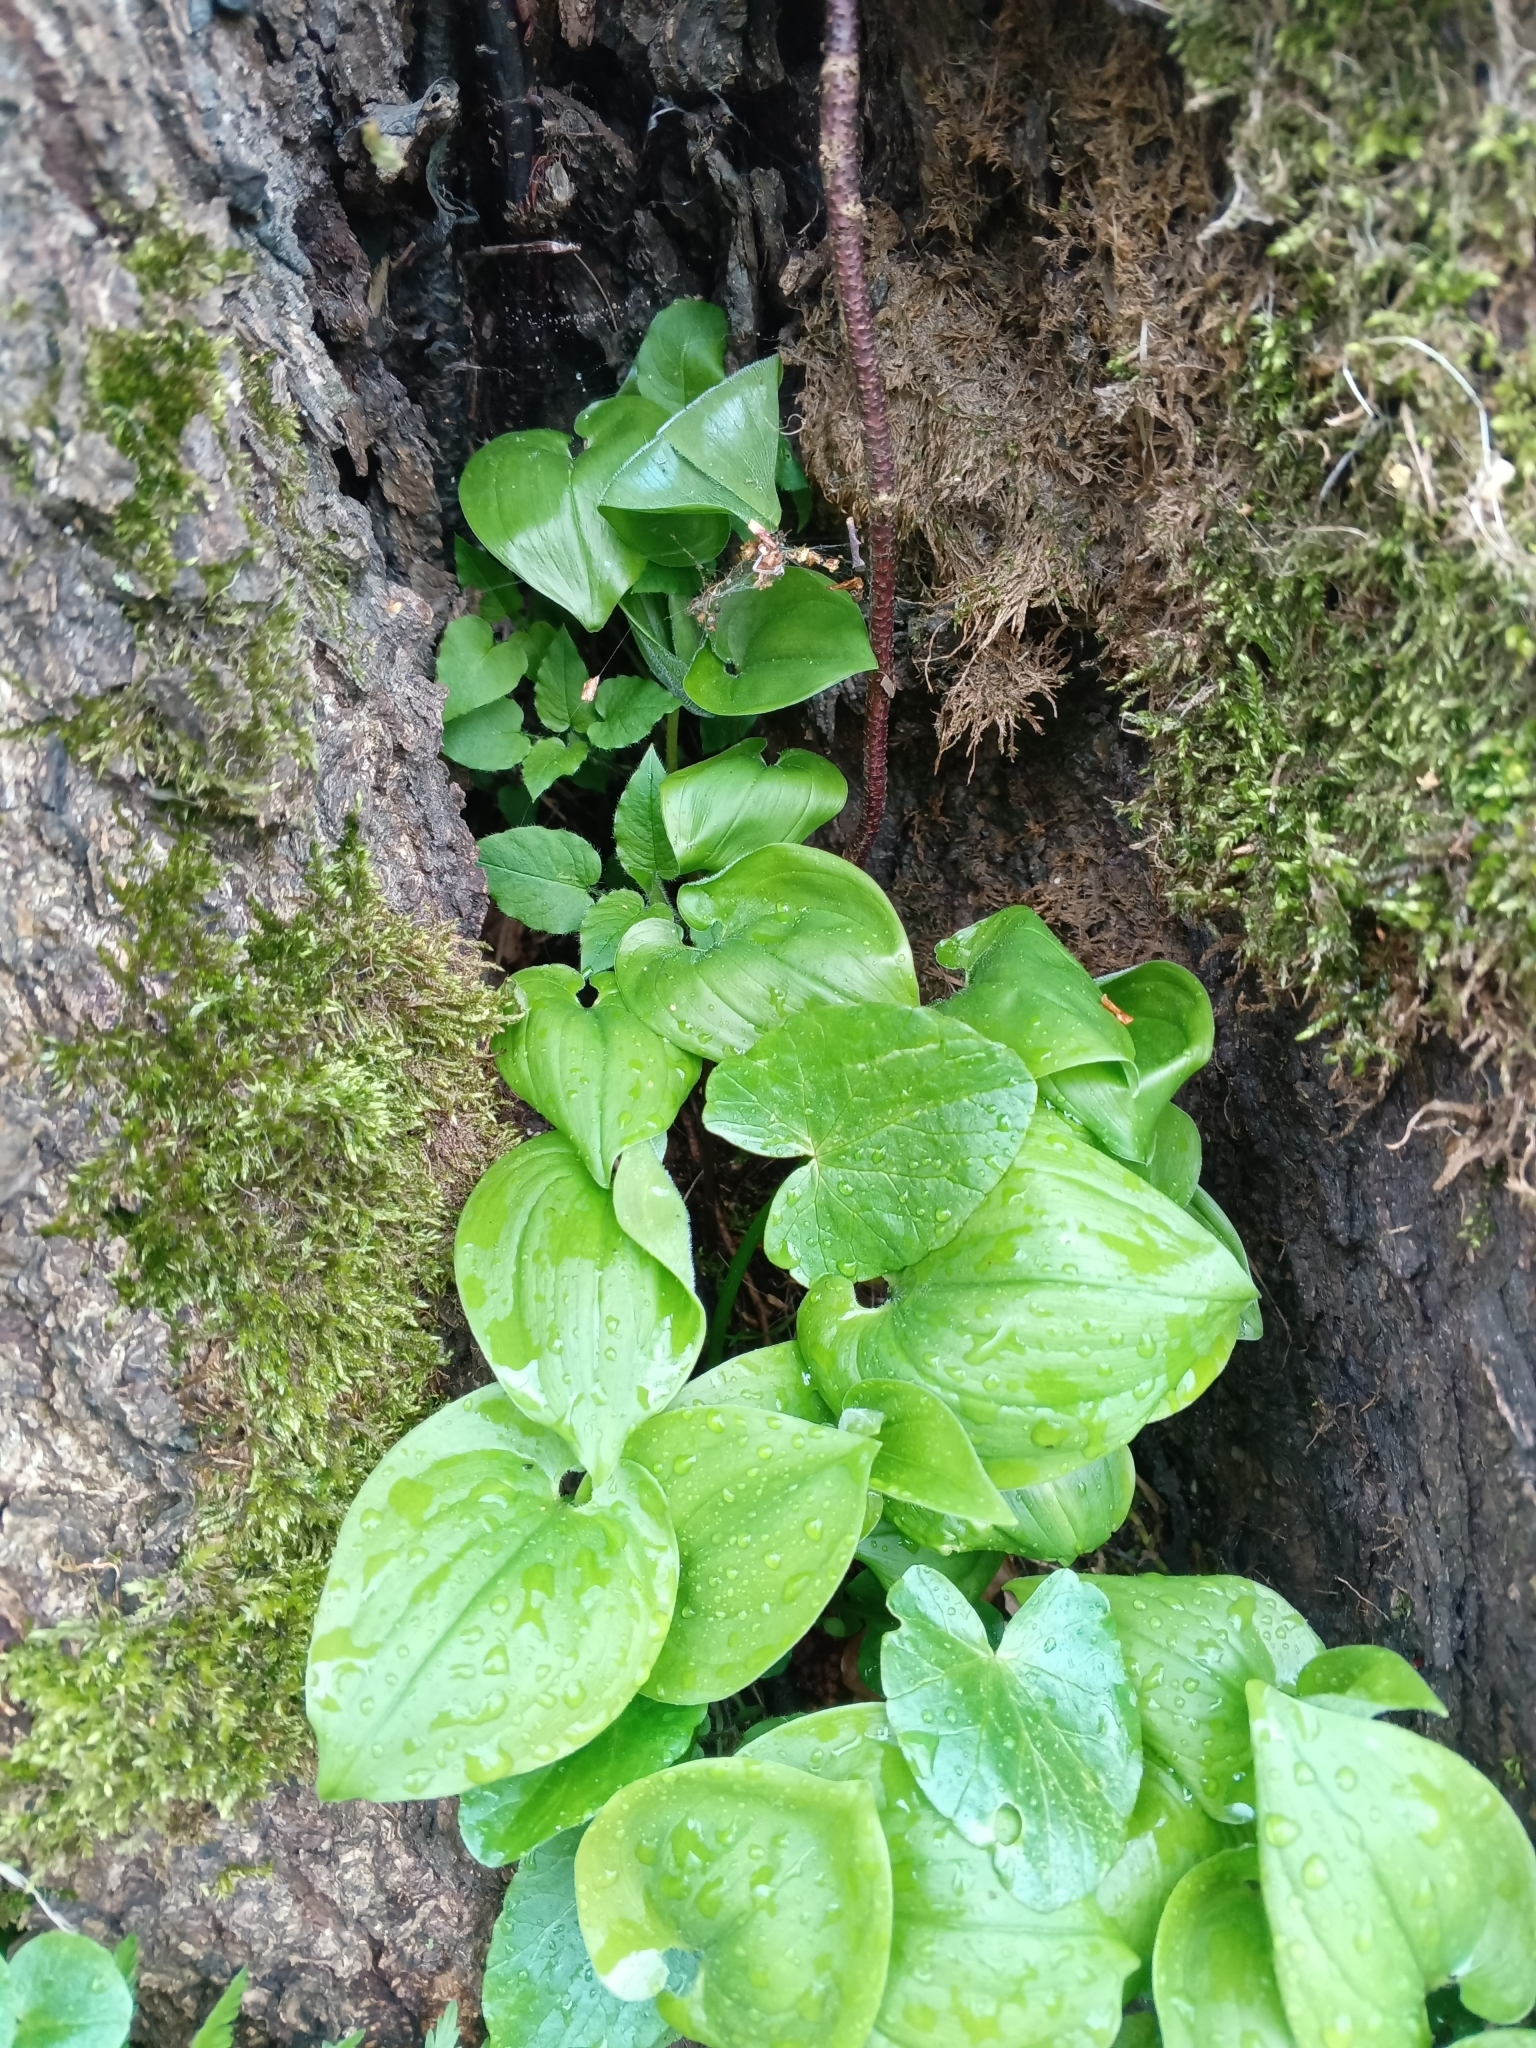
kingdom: Plantae
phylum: Tracheophyta
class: Liliopsida
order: Asparagales
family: Asparagaceae
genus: Maianthemum
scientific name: Maianthemum bifolium
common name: May lily
